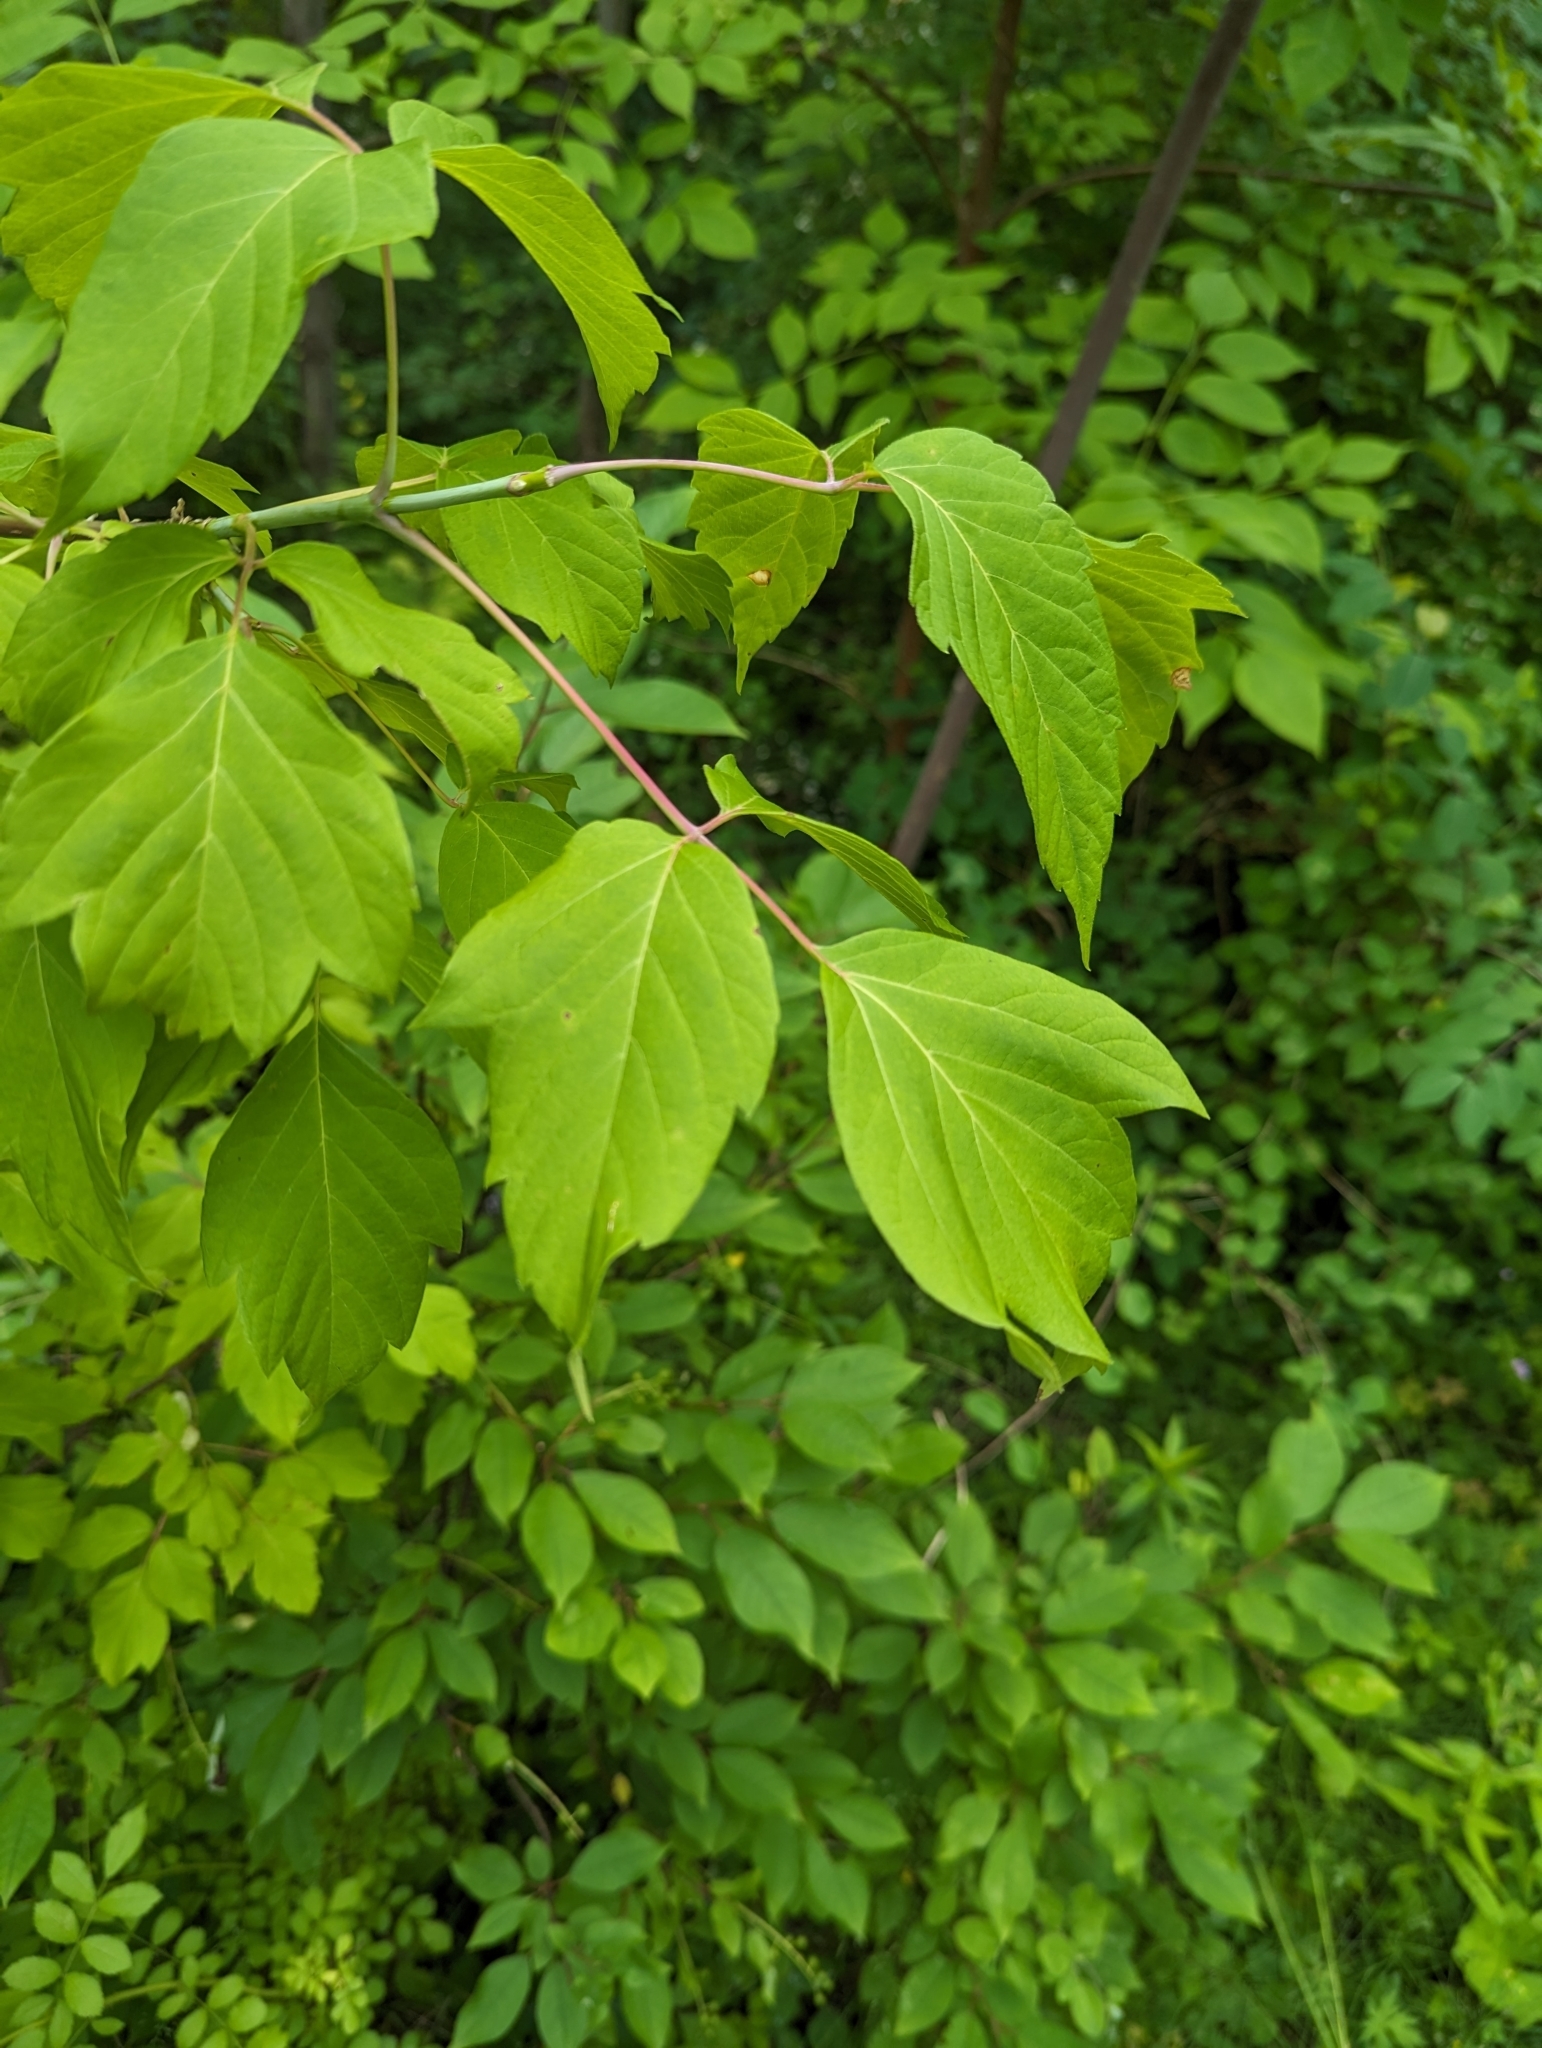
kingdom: Plantae
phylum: Tracheophyta
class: Magnoliopsida
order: Sapindales
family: Sapindaceae
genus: Acer
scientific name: Acer negundo
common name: Ashleaf maple
